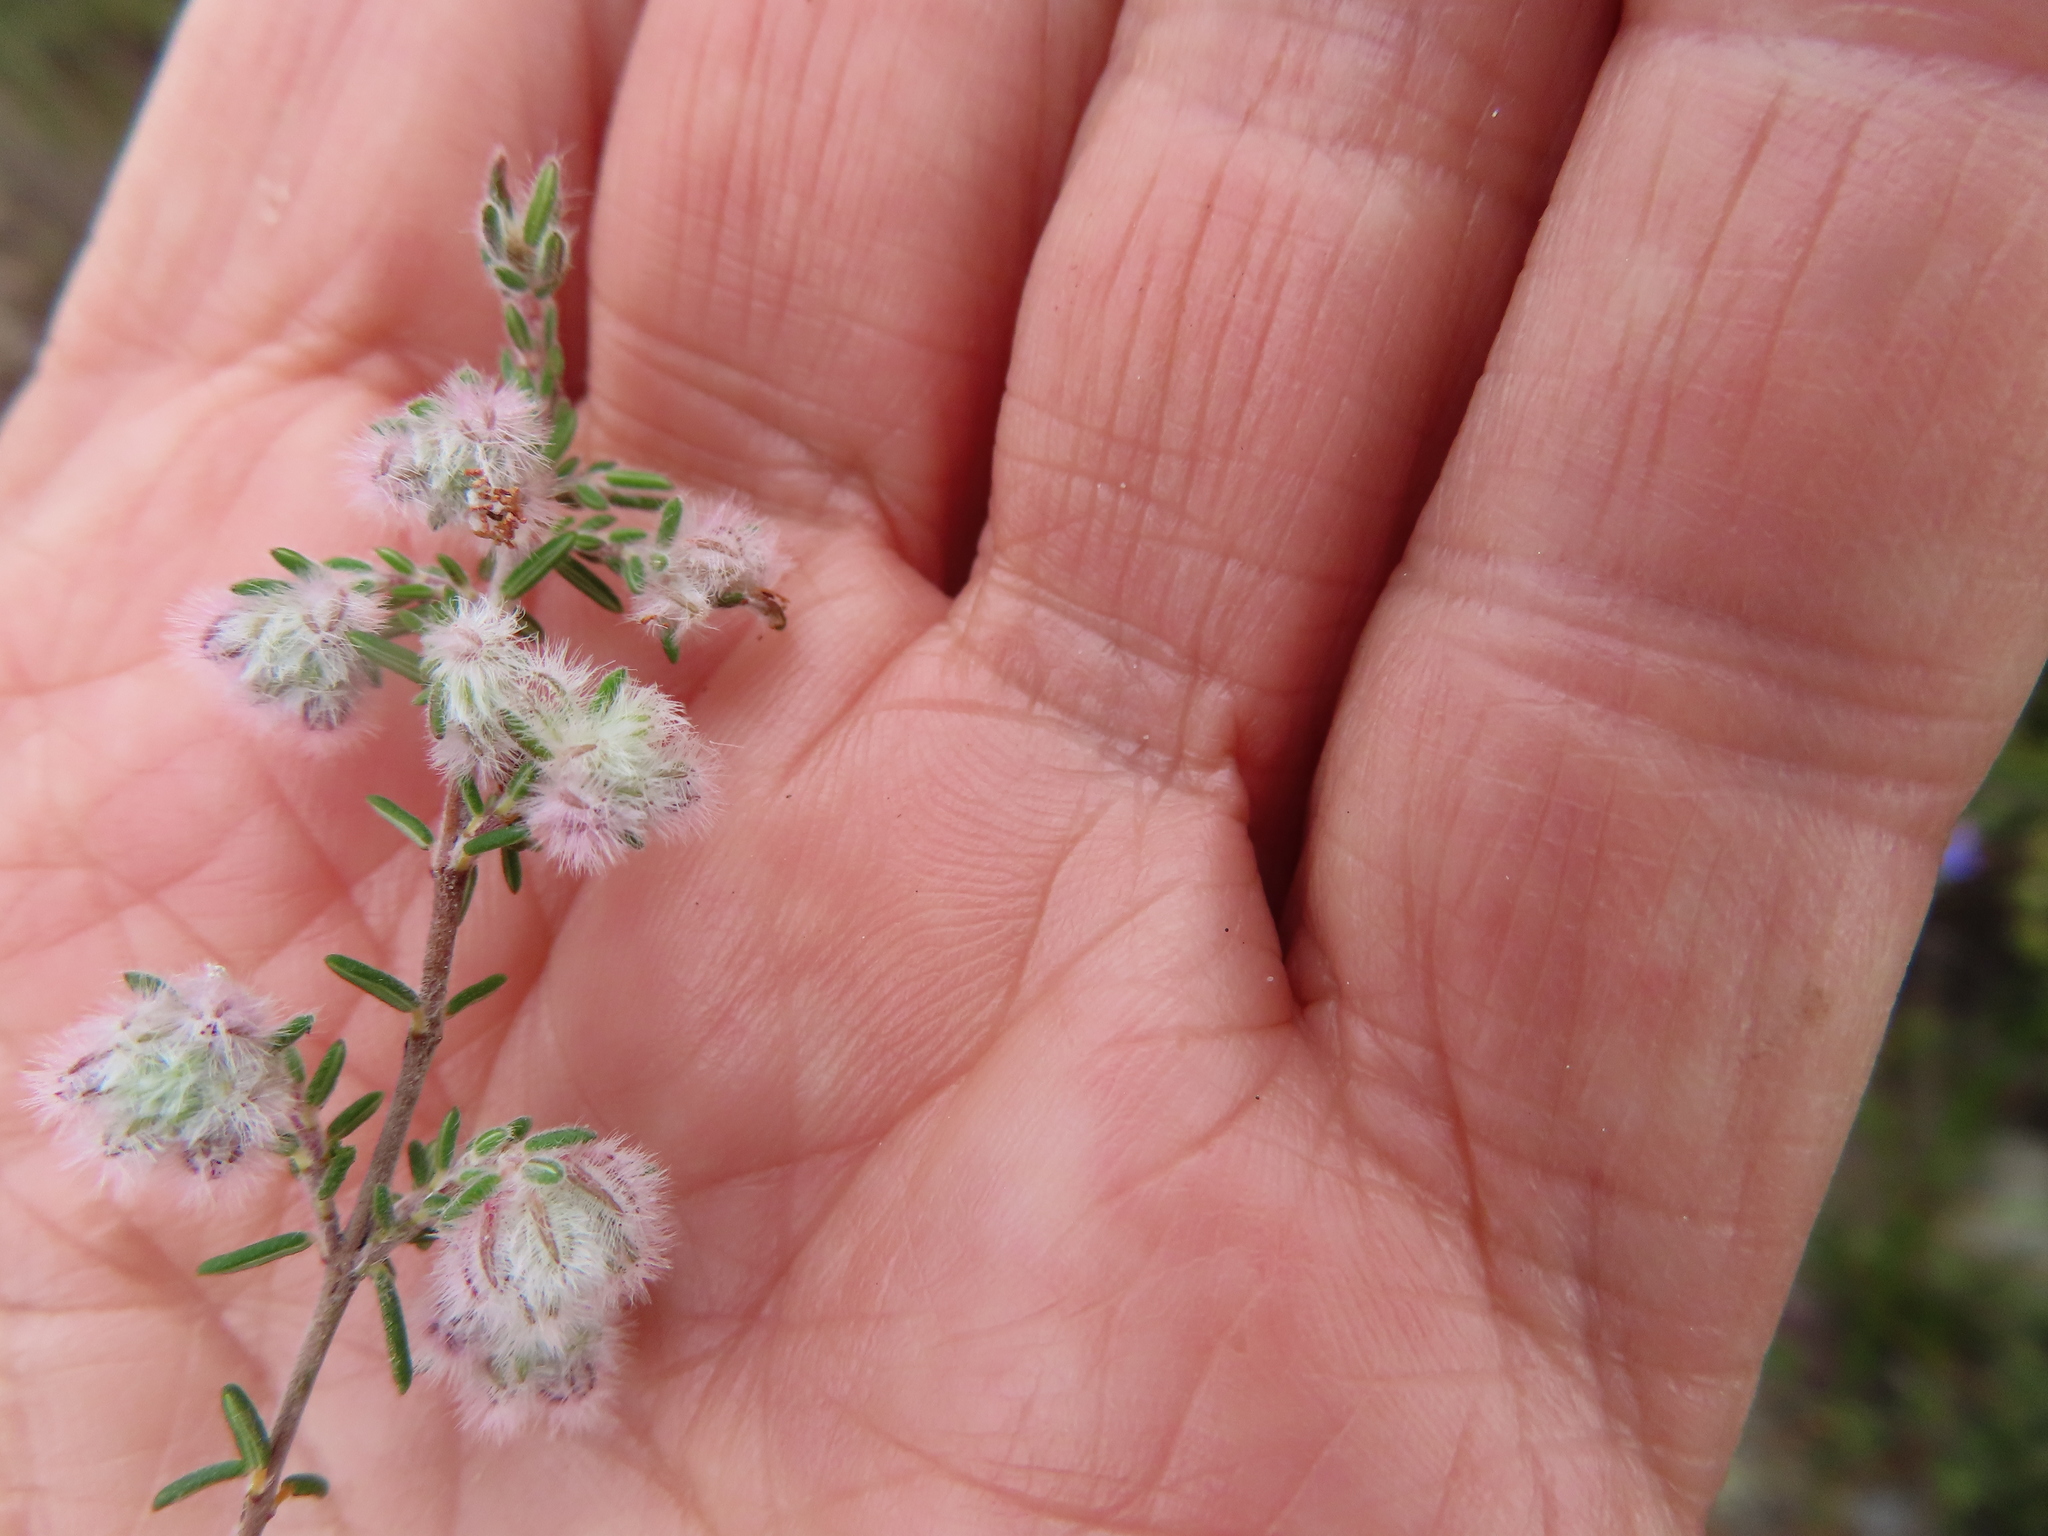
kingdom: Plantae
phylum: Tracheophyta
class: Magnoliopsida
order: Ericales
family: Ericaceae
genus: Erica
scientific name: Erica pilosiflora
